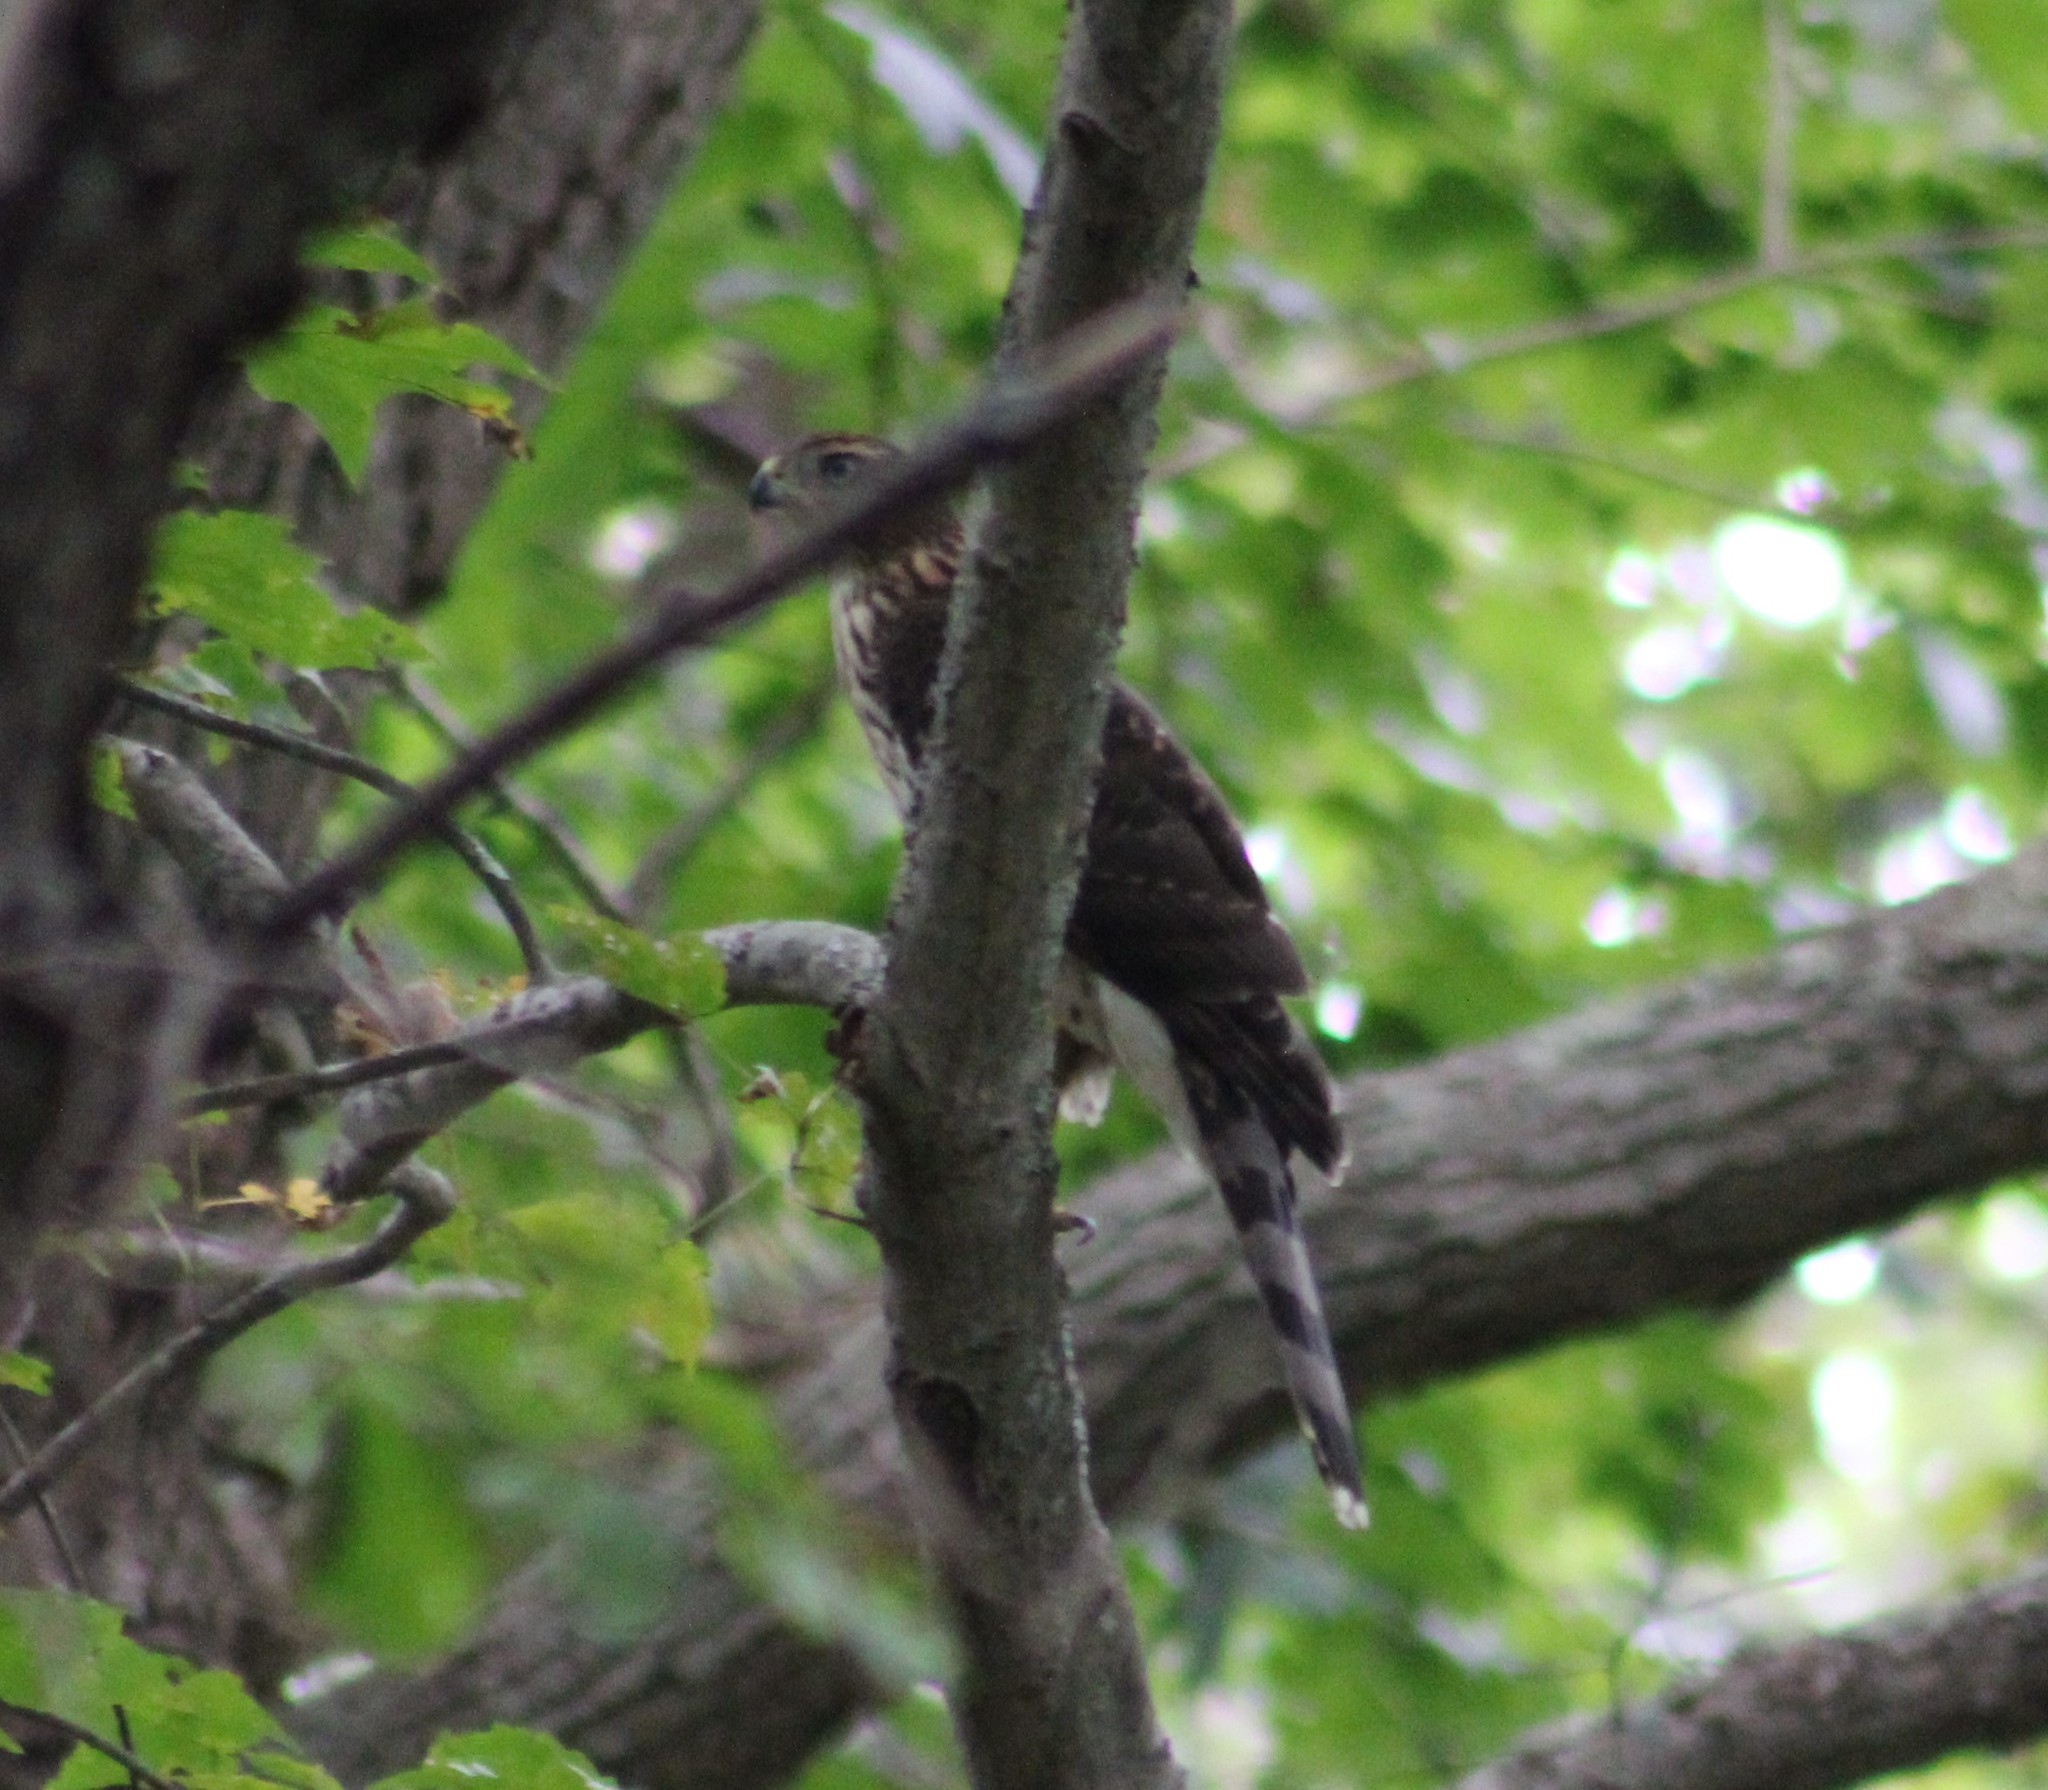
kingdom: Animalia
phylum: Chordata
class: Aves
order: Accipitriformes
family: Accipitridae
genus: Accipiter
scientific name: Accipiter cooperii
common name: Cooper's hawk
